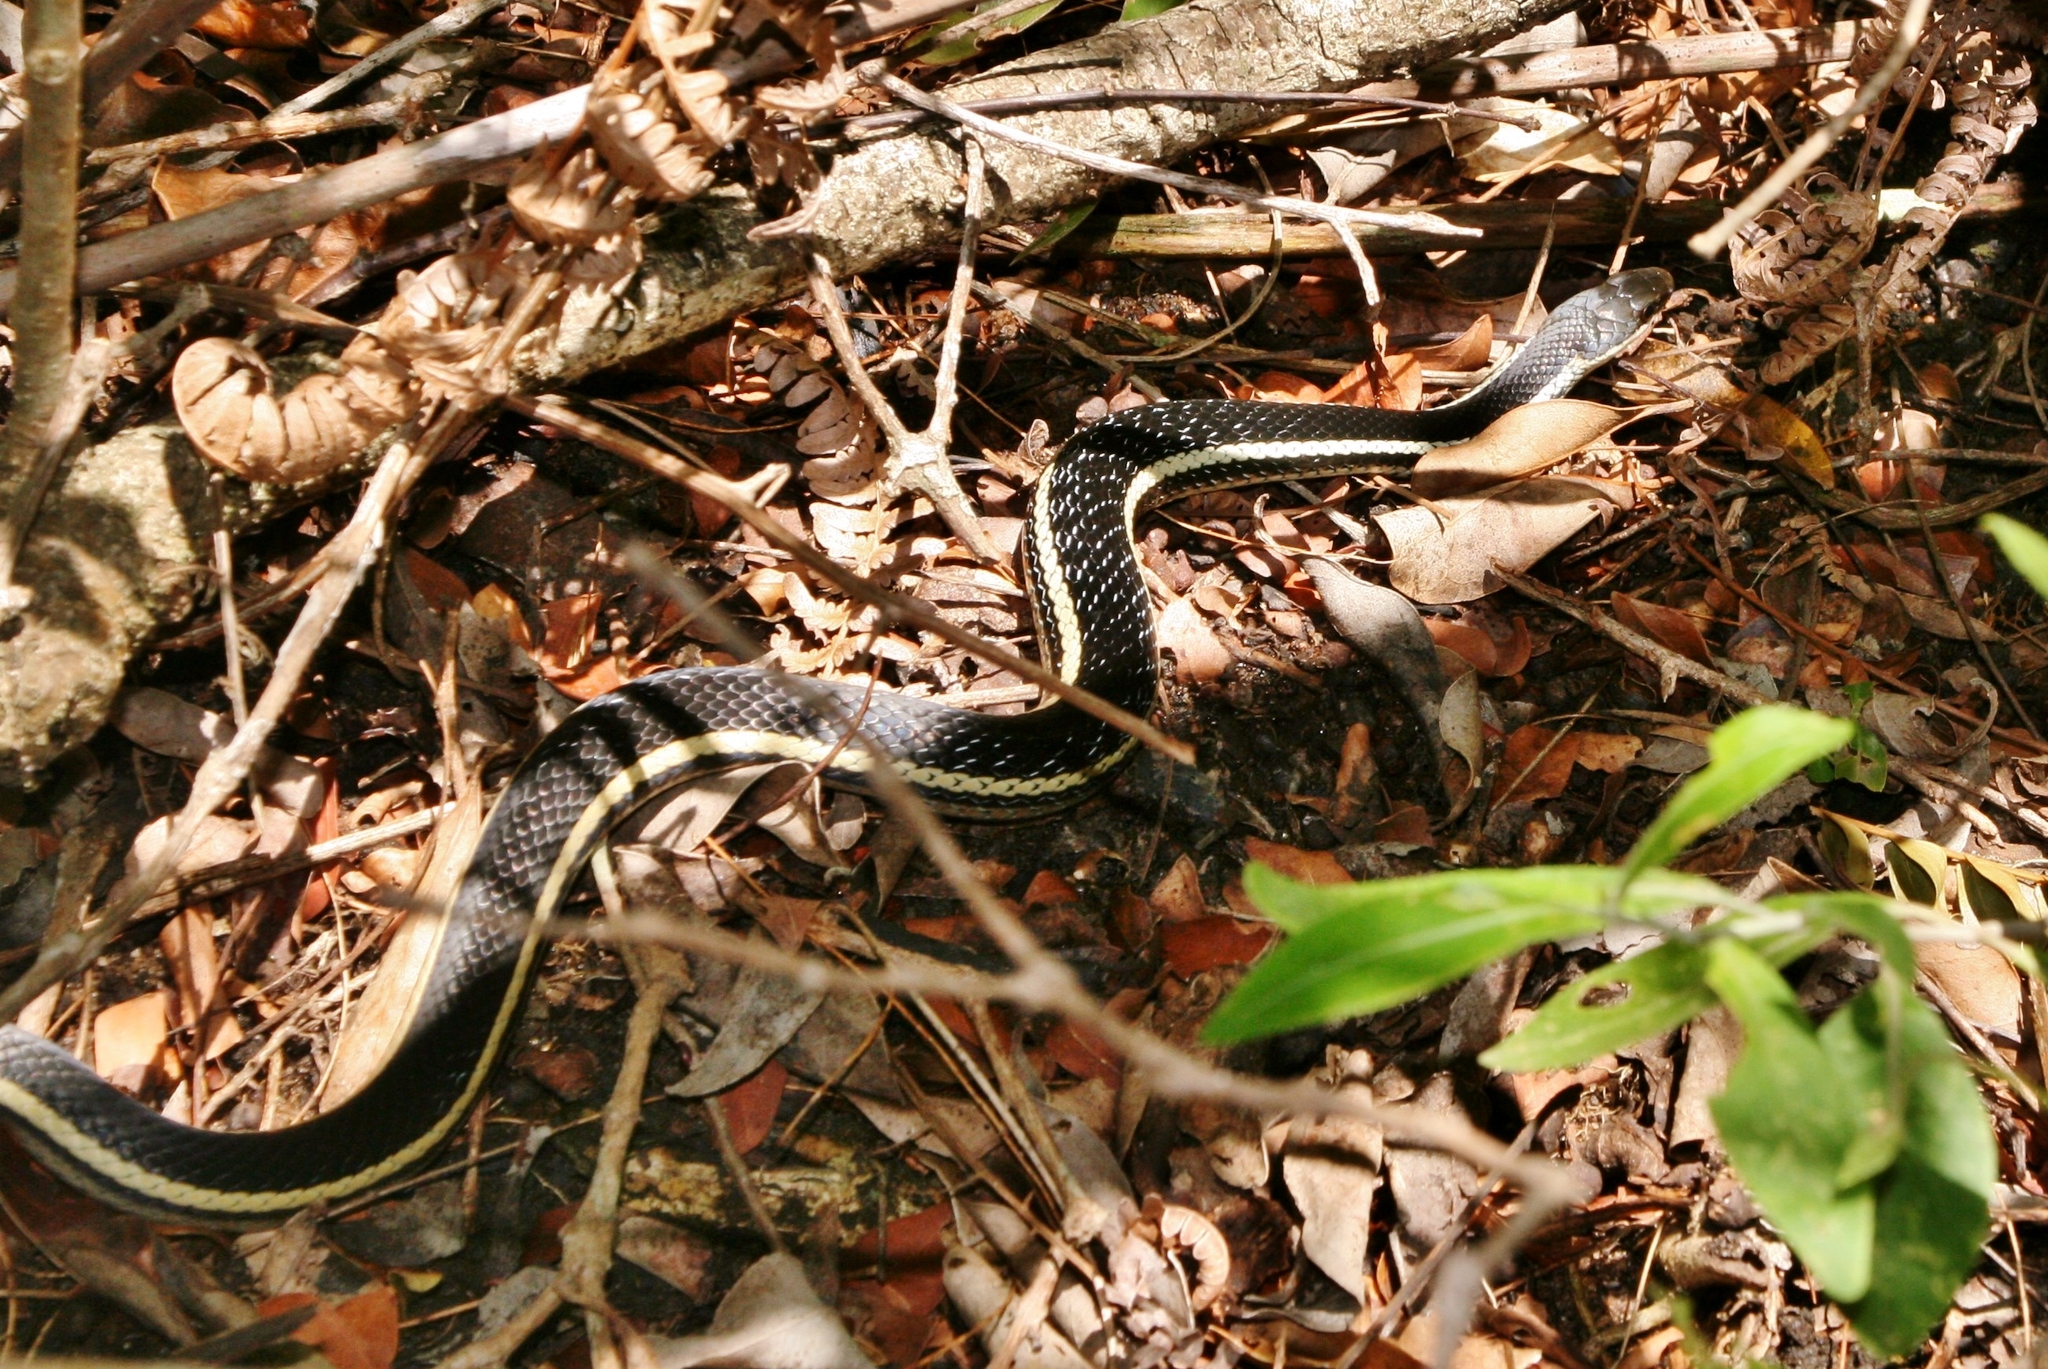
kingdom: Animalia
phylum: Chordata
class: Squamata
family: Pseudoxyrhophiidae
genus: Thamnosophis
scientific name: Thamnosophis lateralis
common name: Lateral water snake
